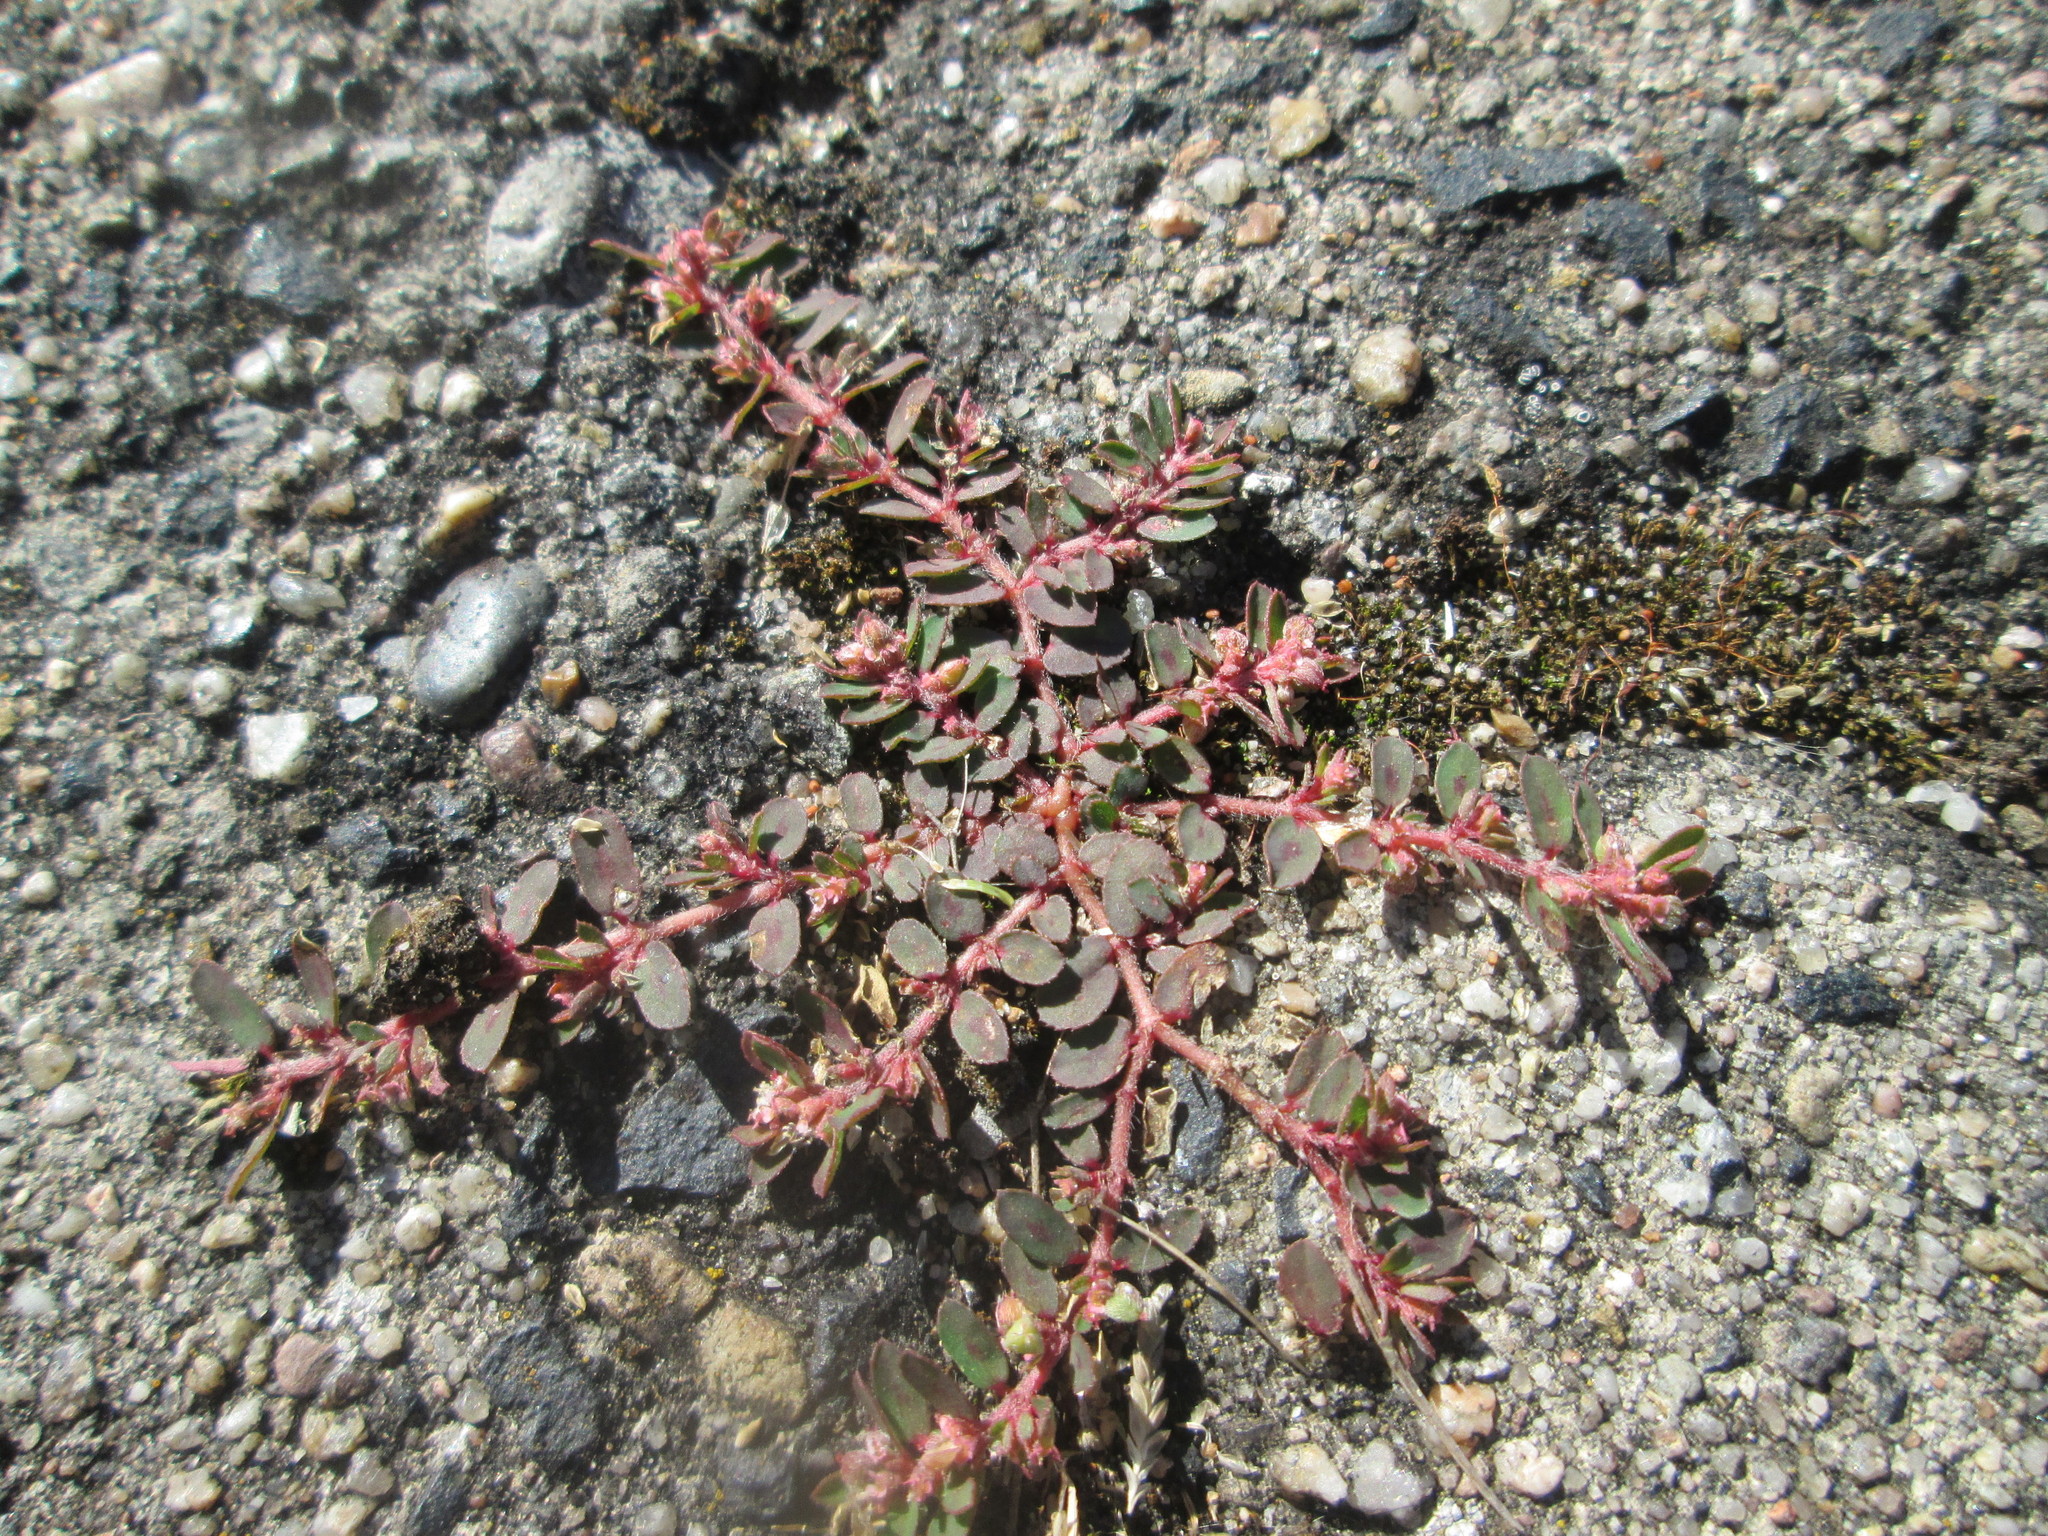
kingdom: Plantae
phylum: Tracheophyta
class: Magnoliopsida
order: Malpighiales
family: Euphorbiaceae
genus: Euphorbia
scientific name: Euphorbia maculata
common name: Spotted spurge
